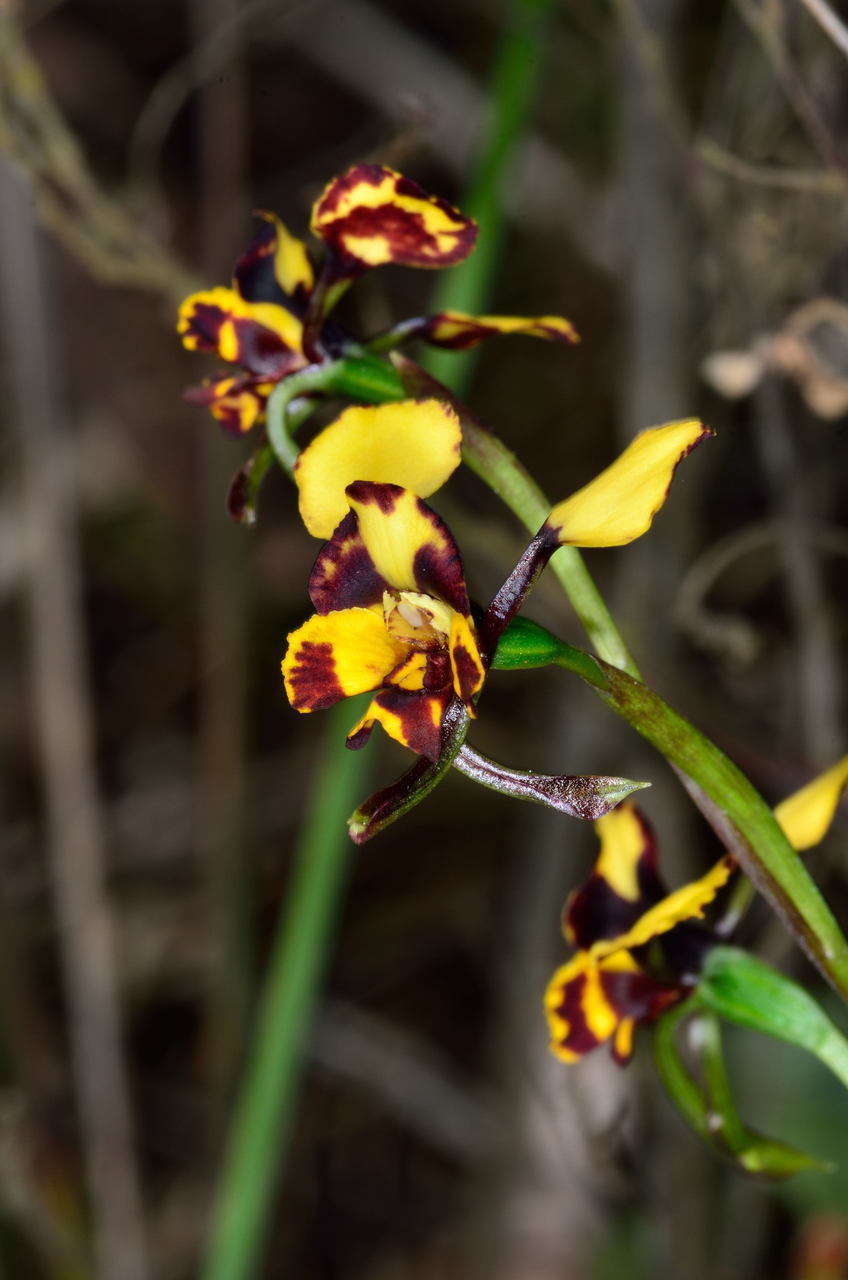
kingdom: Plantae
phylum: Tracheophyta
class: Liliopsida
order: Asparagales
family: Orchidaceae
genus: Diuris
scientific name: Diuris pardina
